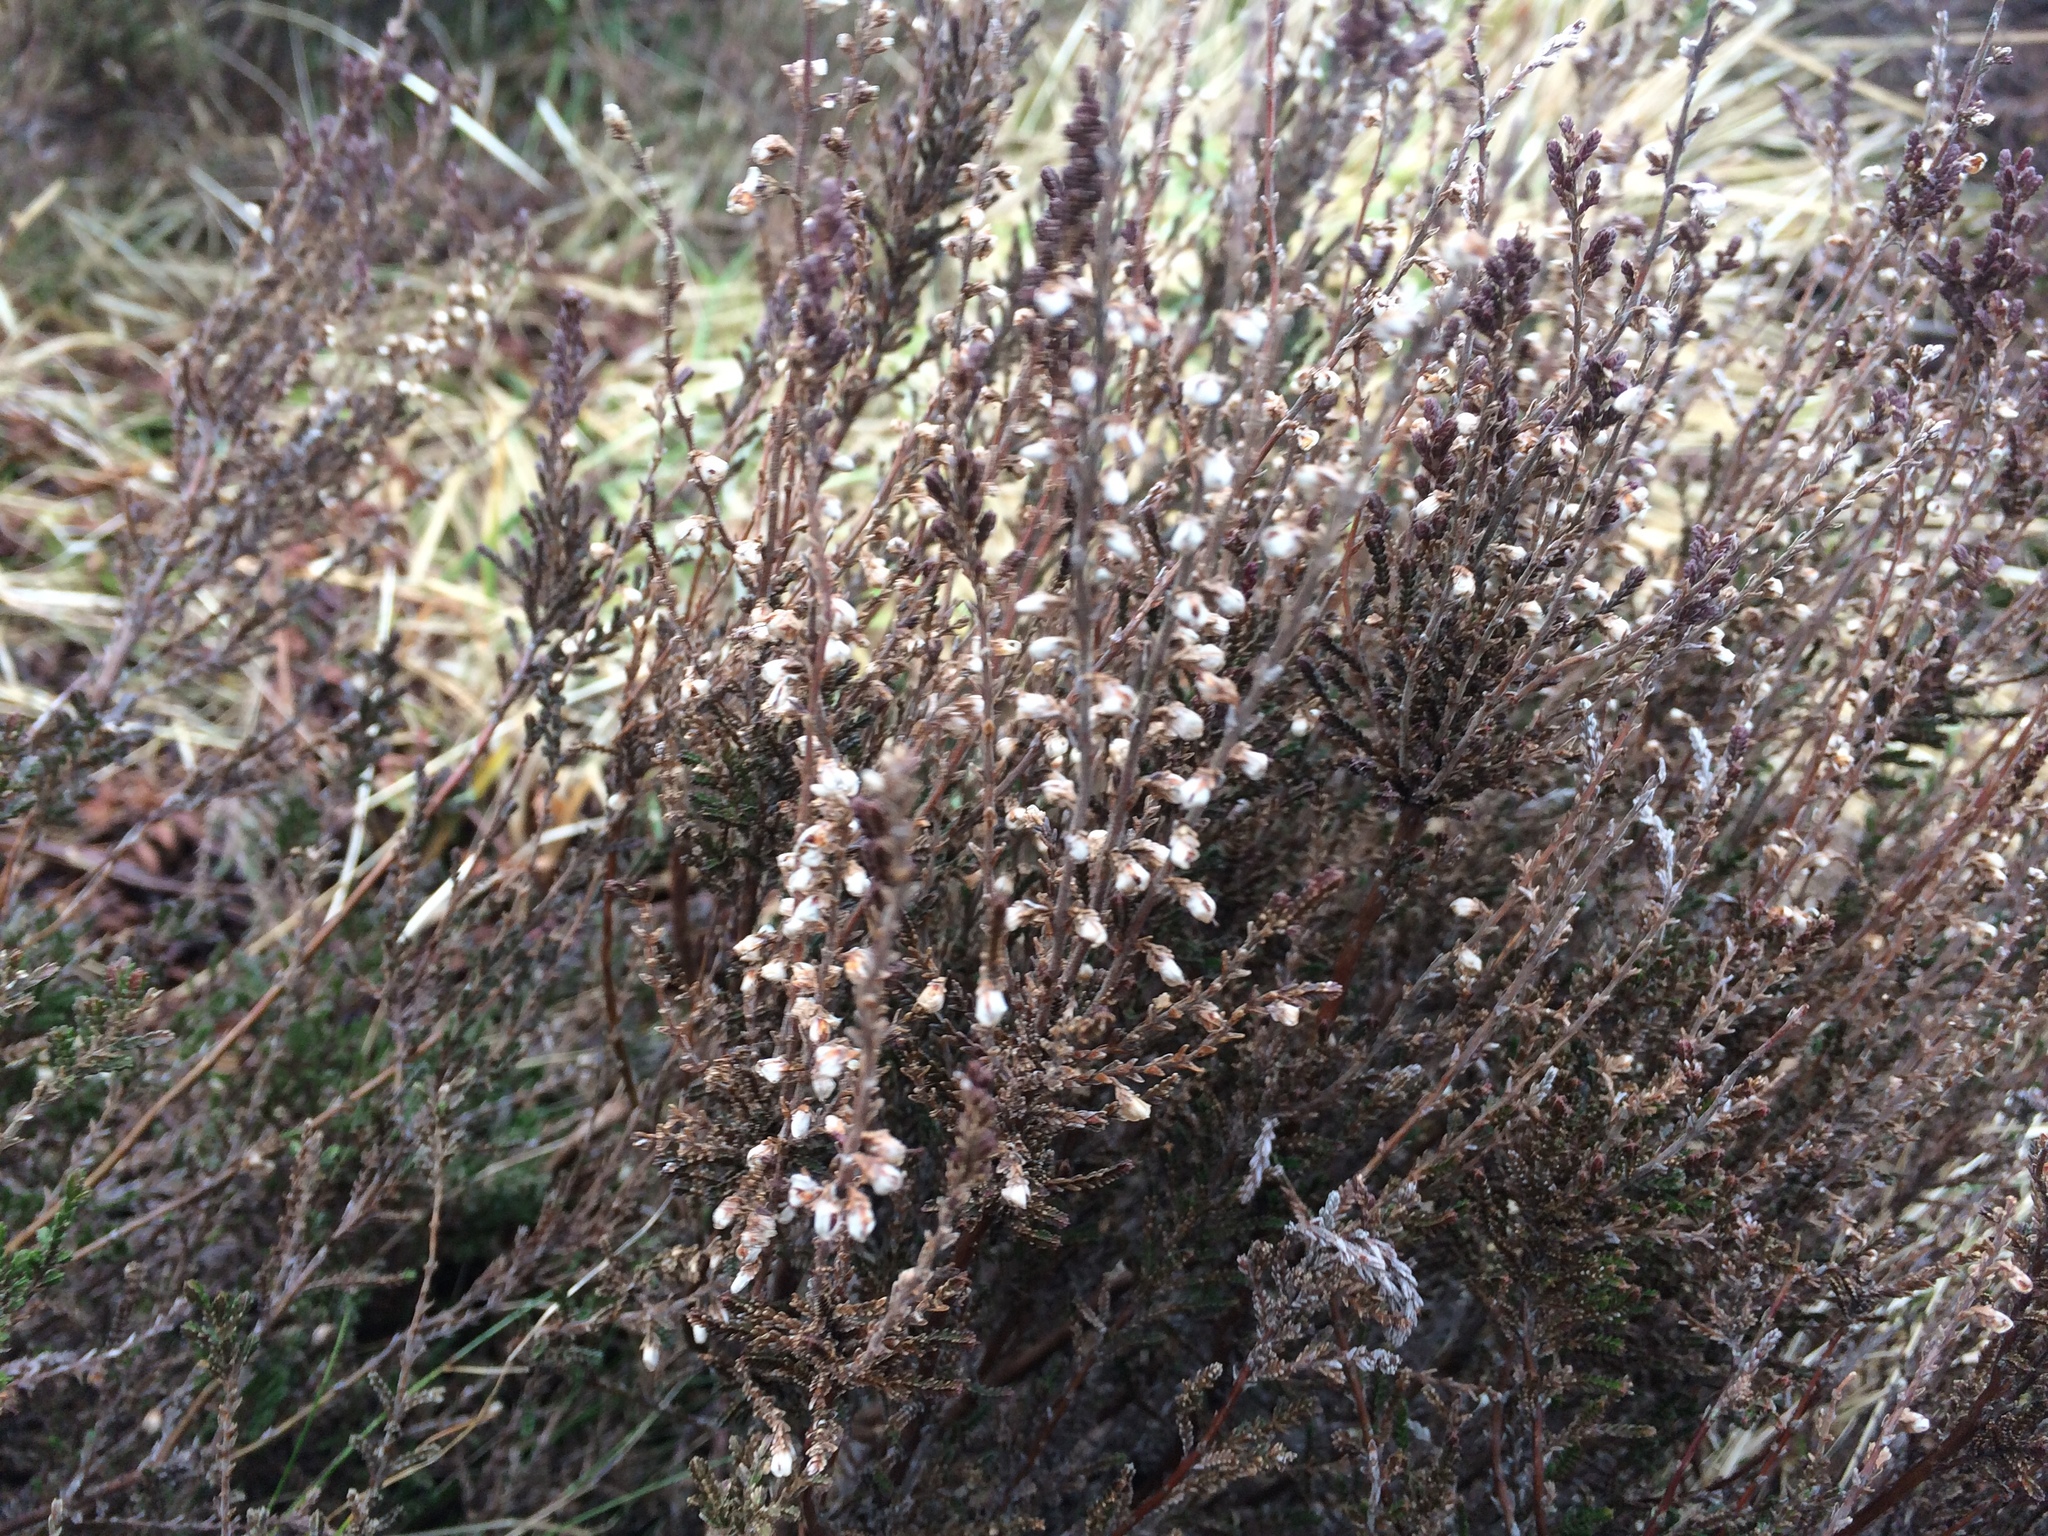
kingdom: Plantae
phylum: Tracheophyta
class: Magnoliopsida
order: Ericales
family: Ericaceae
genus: Calluna
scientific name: Calluna vulgaris
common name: Heather
